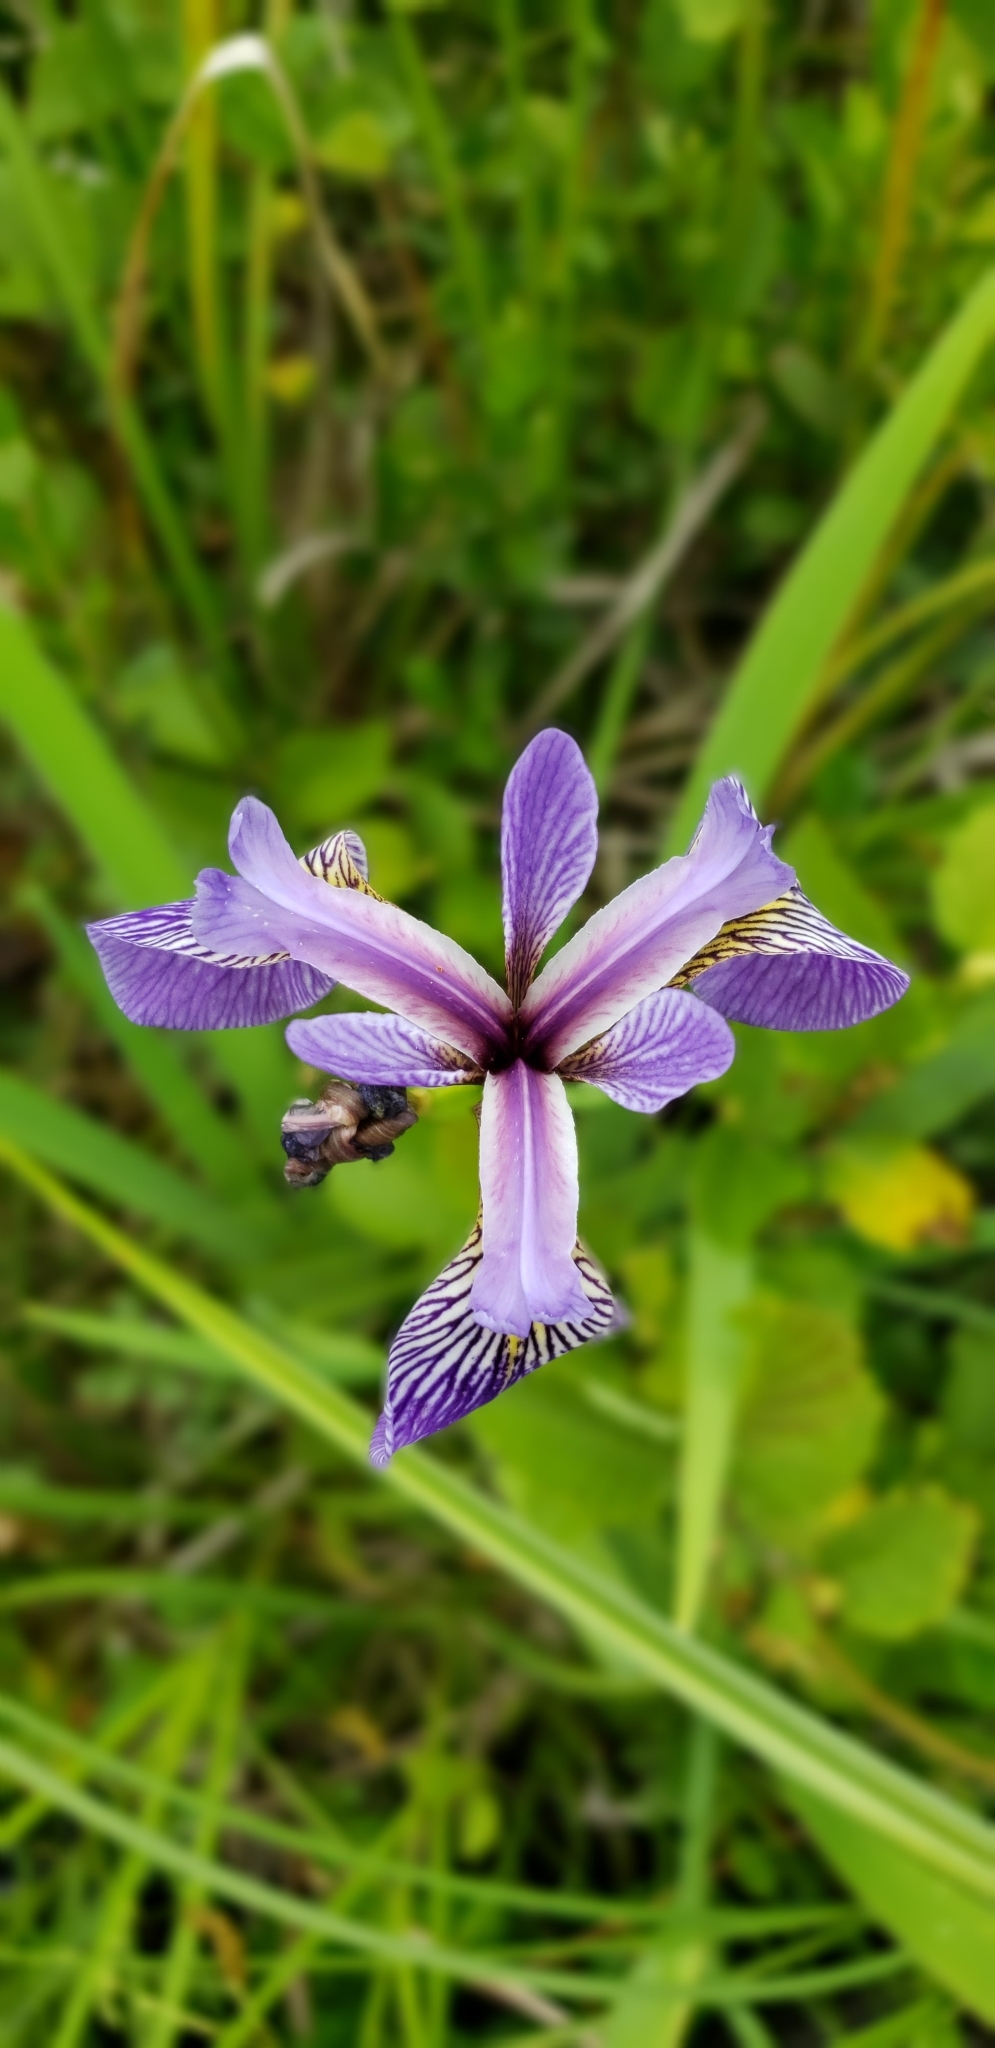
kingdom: Plantae
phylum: Tracheophyta
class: Liliopsida
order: Asparagales
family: Iridaceae
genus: Iris
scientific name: Iris versicolor
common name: Purple iris
